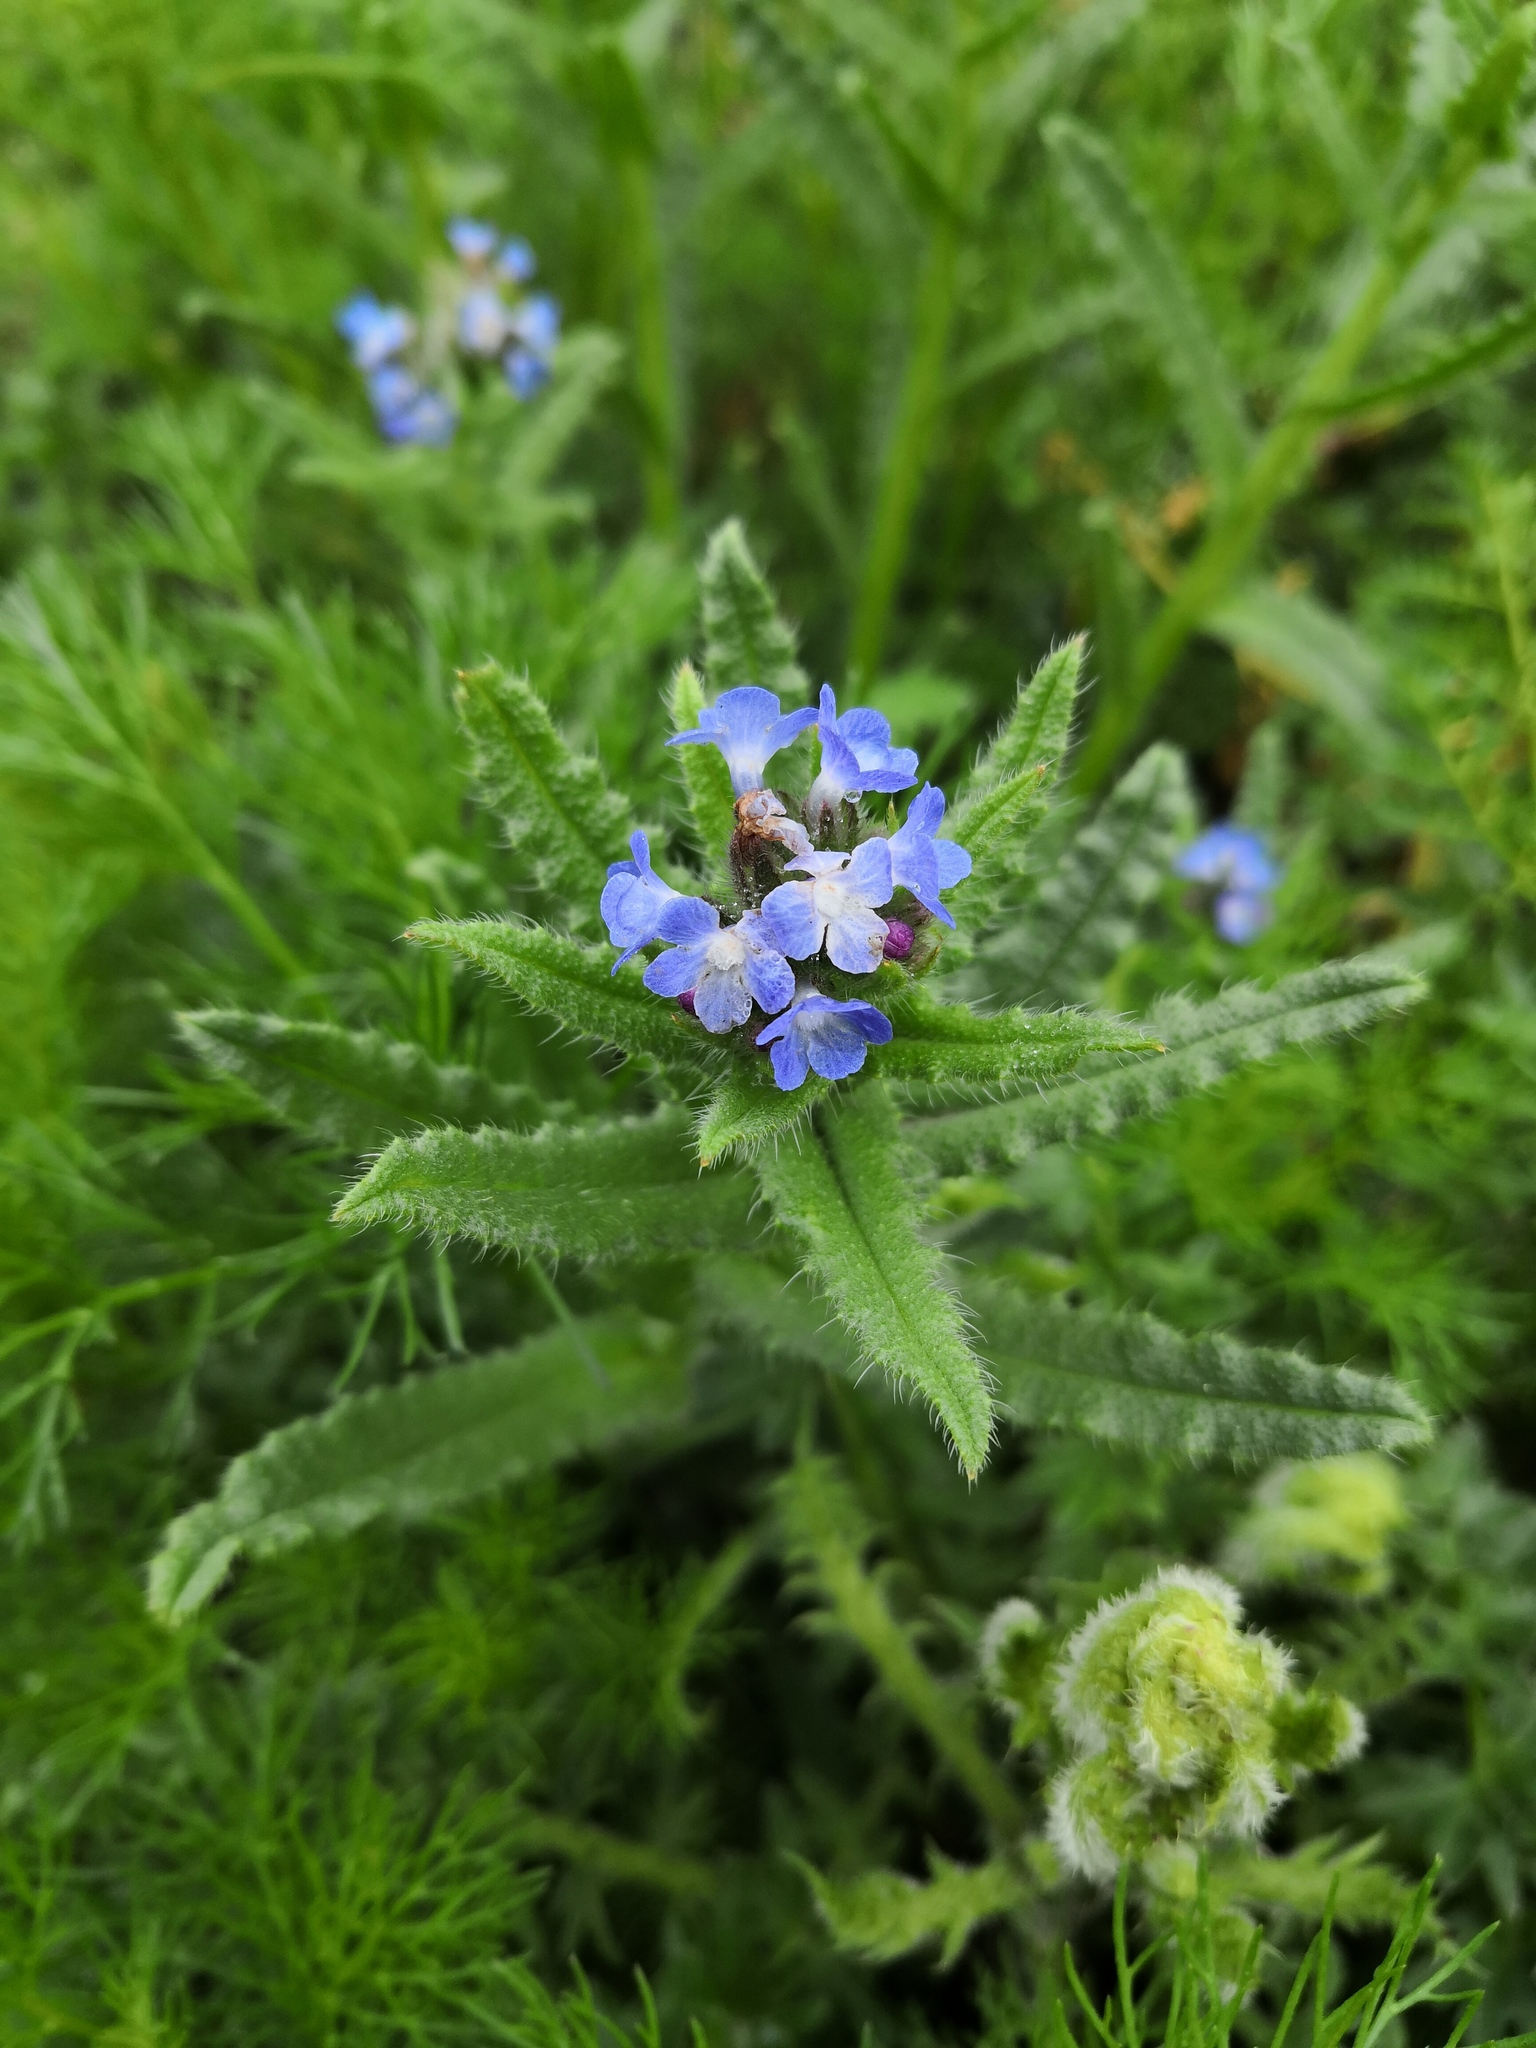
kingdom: Plantae
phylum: Tracheophyta
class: Magnoliopsida
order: Boraginales
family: Boraginaceae
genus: Lycopsis
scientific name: Lycopsis arvensis
